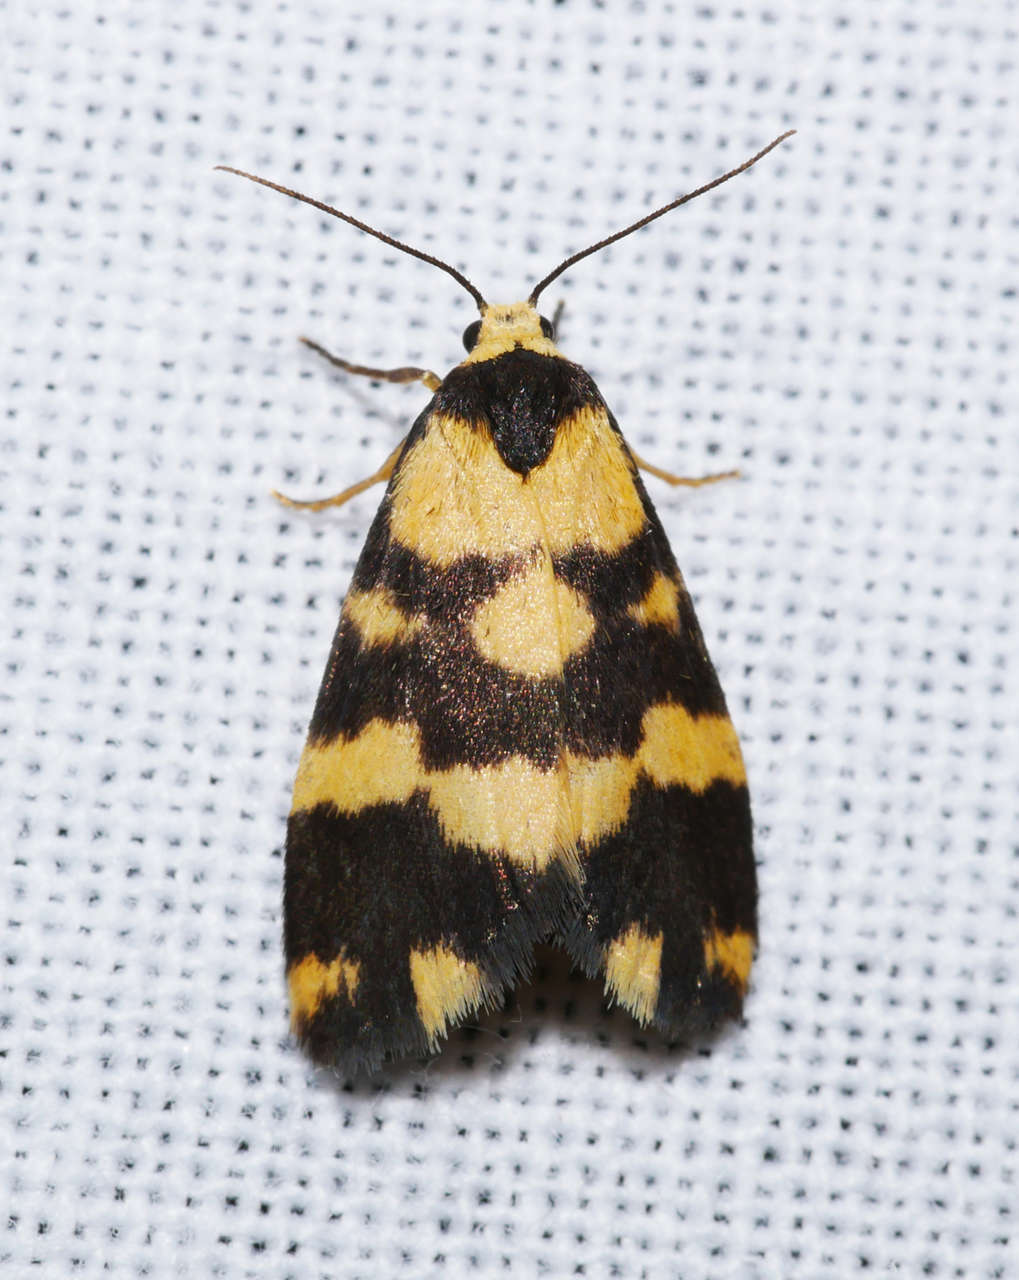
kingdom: Animalia
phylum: Arthropoda
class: Insecta
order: Lepidoptera
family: Erebidae
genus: Thallarcha
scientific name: Thallarcha partita
